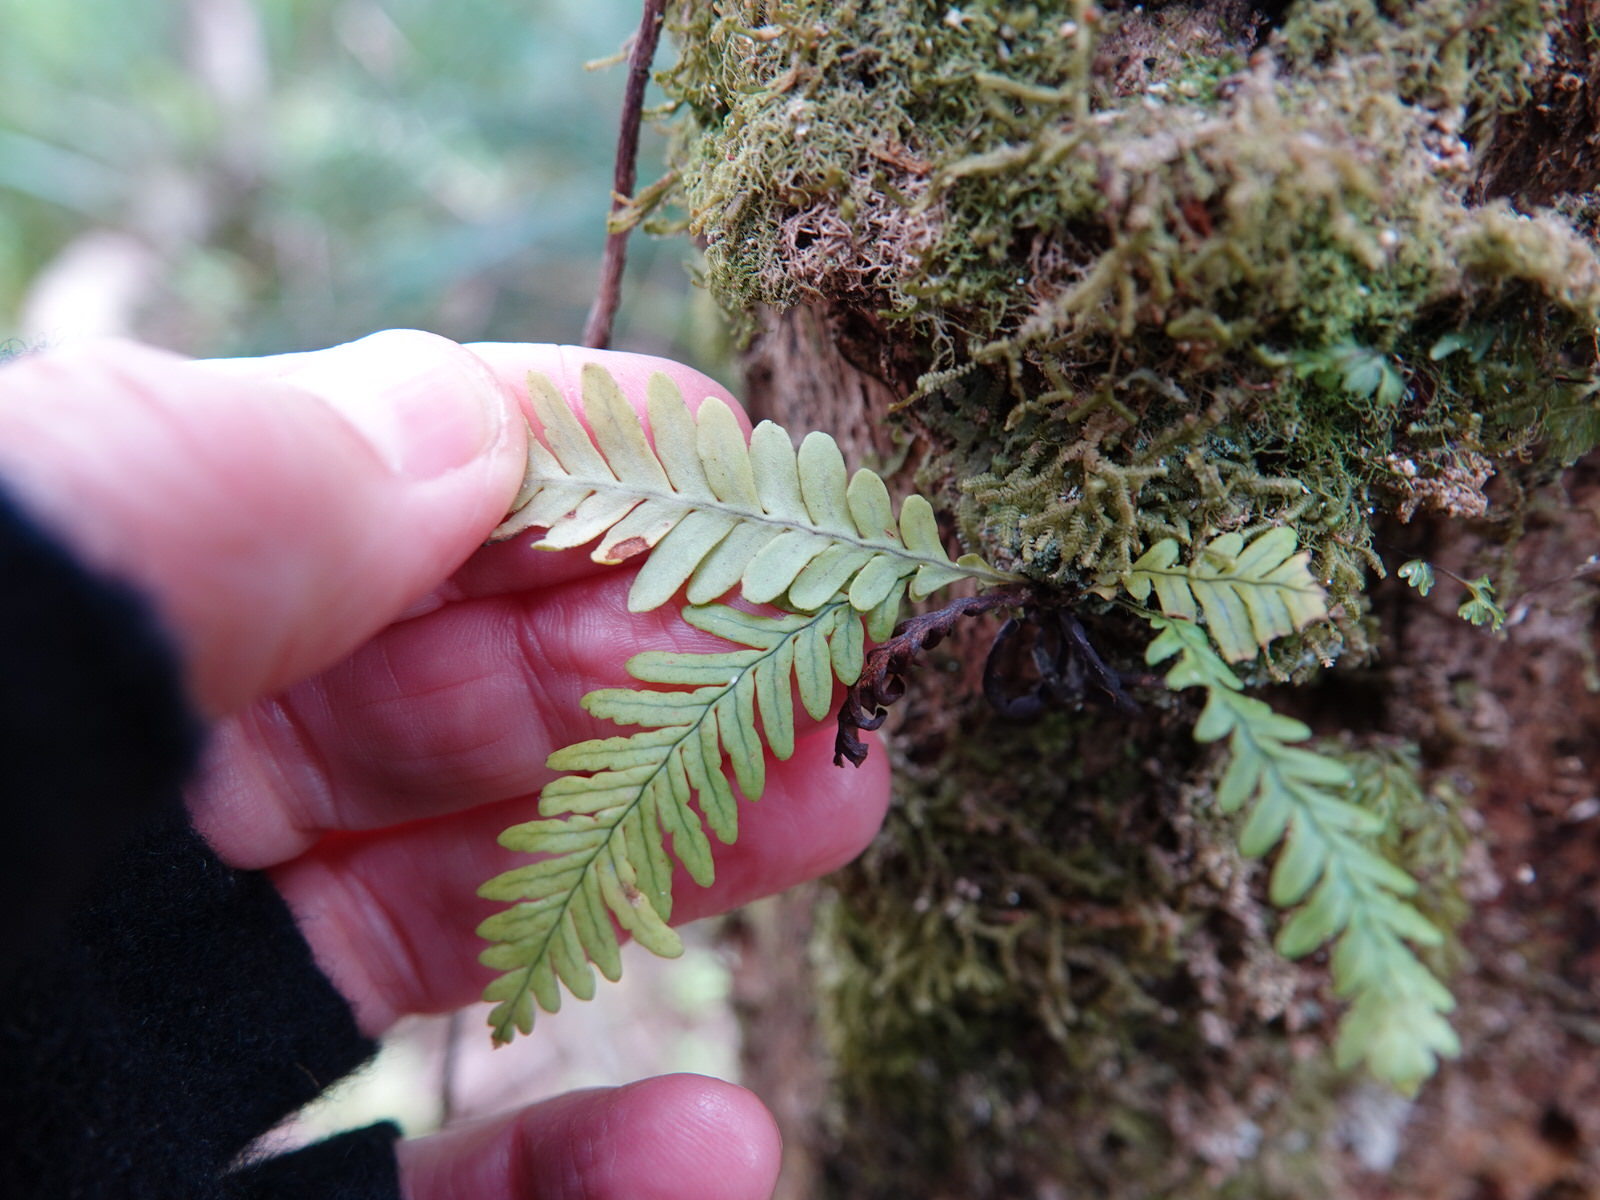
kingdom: Plantae
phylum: Tracheophyta
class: Polypodiopsida
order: Polypodiales
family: Polypodiaceae
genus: Notogrammitis
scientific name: Notogrammitis heterophylla
